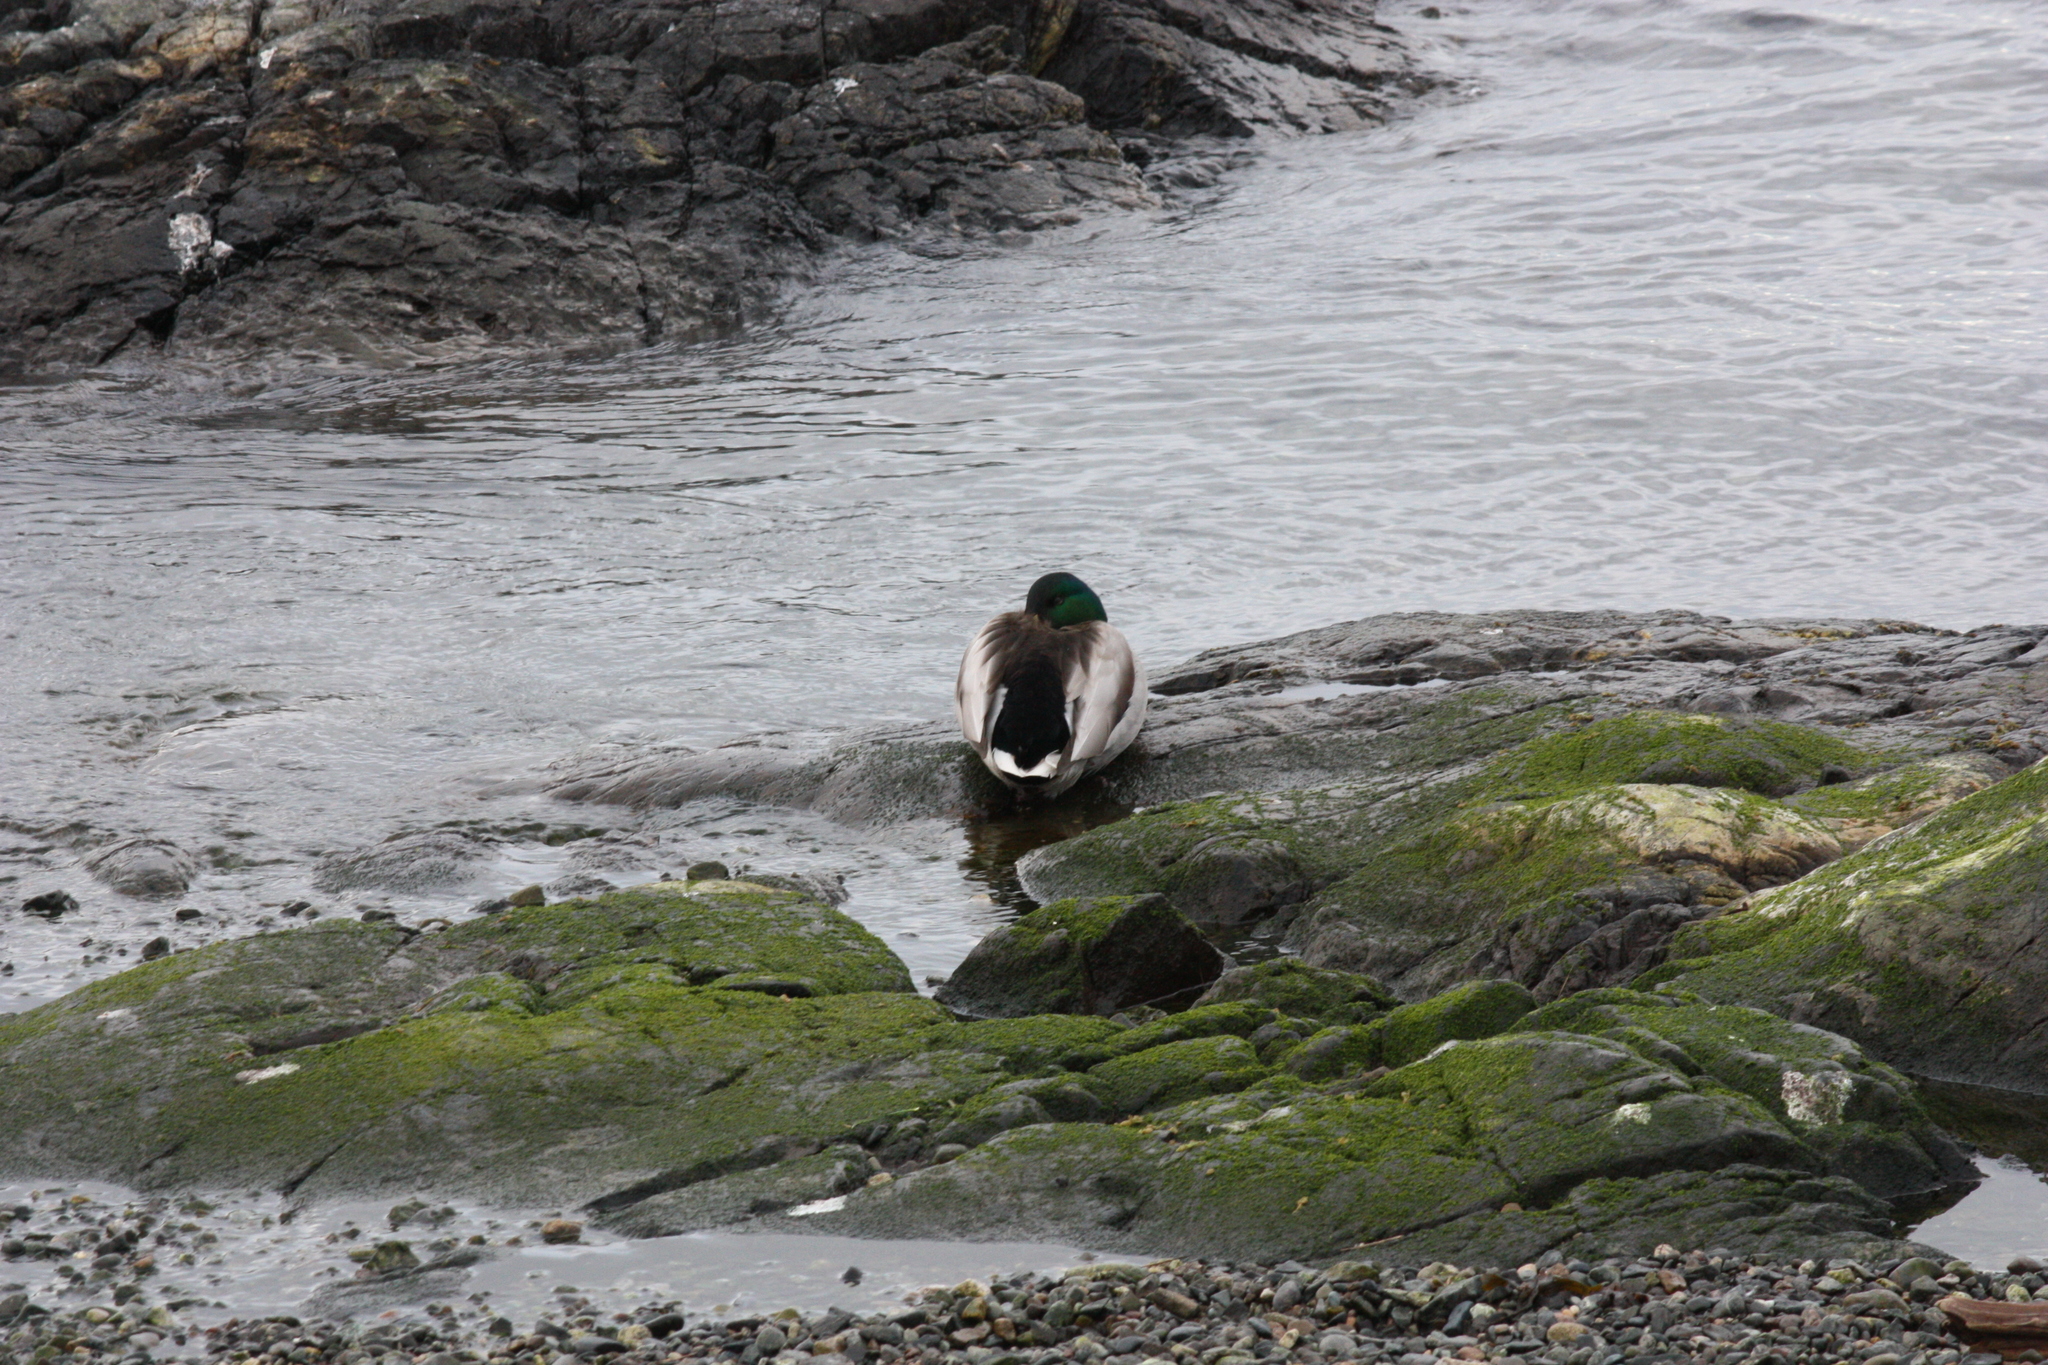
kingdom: Animalia
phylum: Chordata
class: Aves
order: Anseriformes
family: Anatidae
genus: Anas
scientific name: Anas platyrhynchos
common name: Mallard
